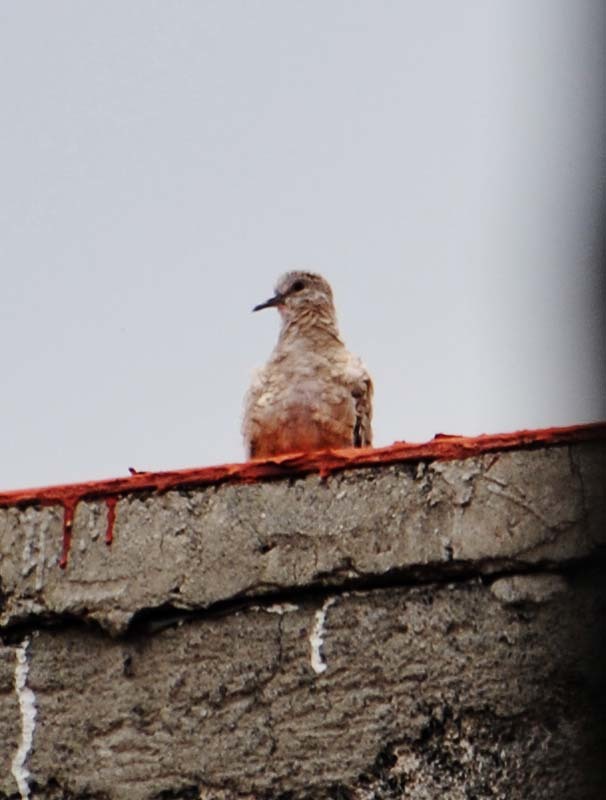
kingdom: Animalia
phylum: Chordata
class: Aves
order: Columbiformes
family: Columbidae
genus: Columbina
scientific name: Columbina inca
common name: Inca dove
